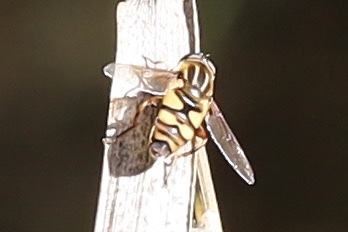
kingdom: Animalia
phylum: Arthropoda
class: Insecta
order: Diptera
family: Syrphidae
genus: Helophilus
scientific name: Helophilus fasciatus
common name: Narrow-headed marsh fly
